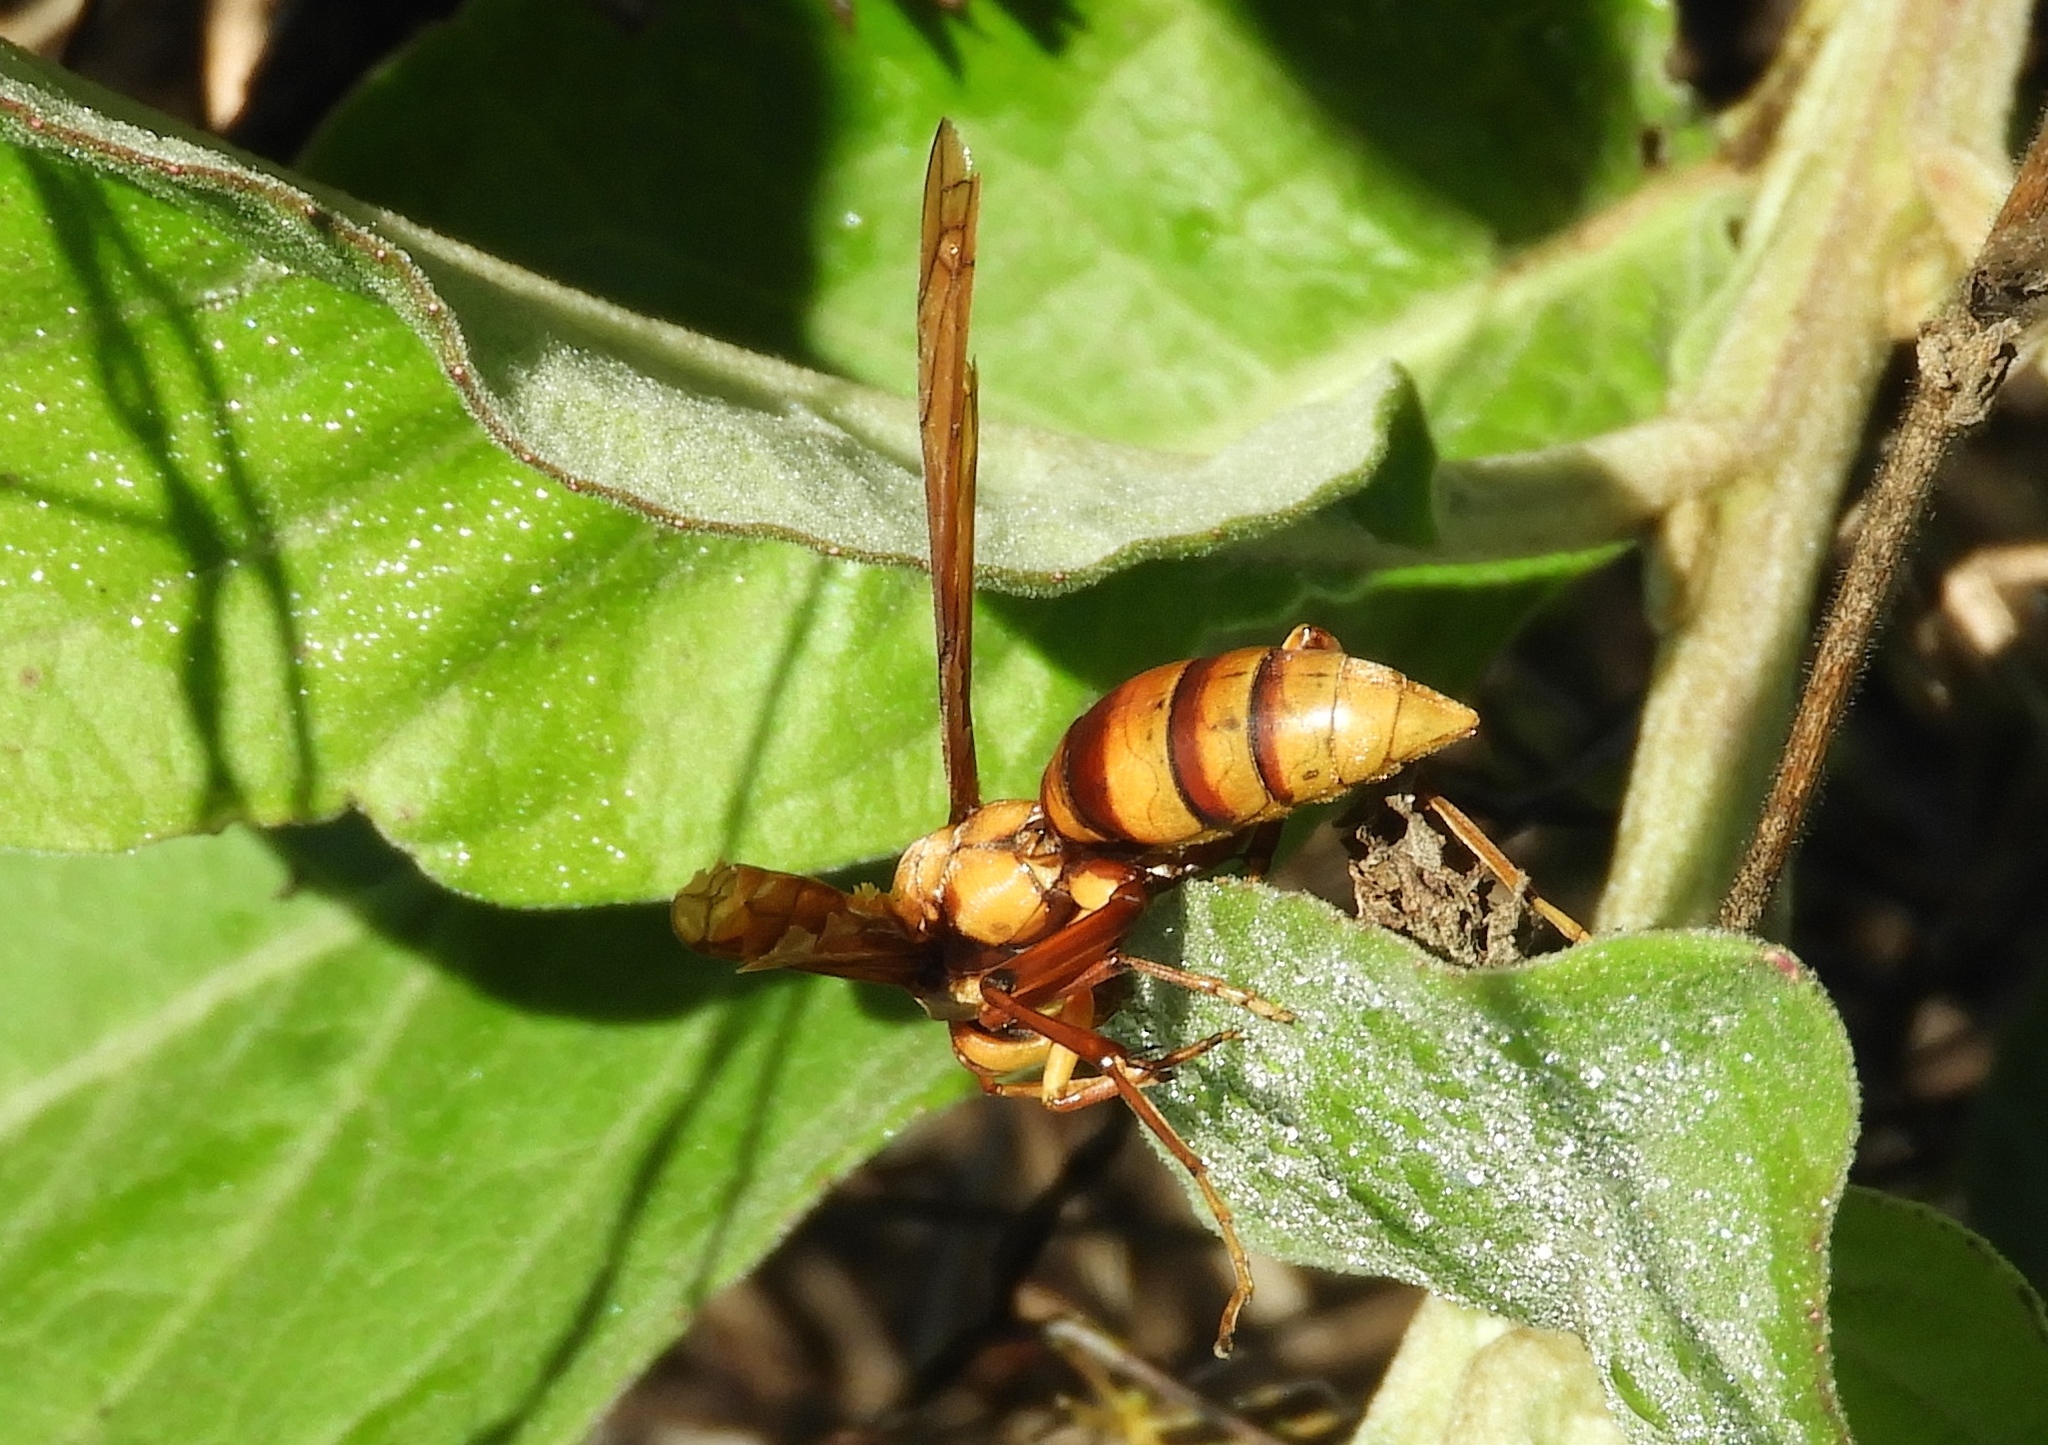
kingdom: Animalia
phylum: Arthropoda
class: Insecta
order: Hymenoptera
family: Eumenidae
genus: Polistes
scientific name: Polistes
